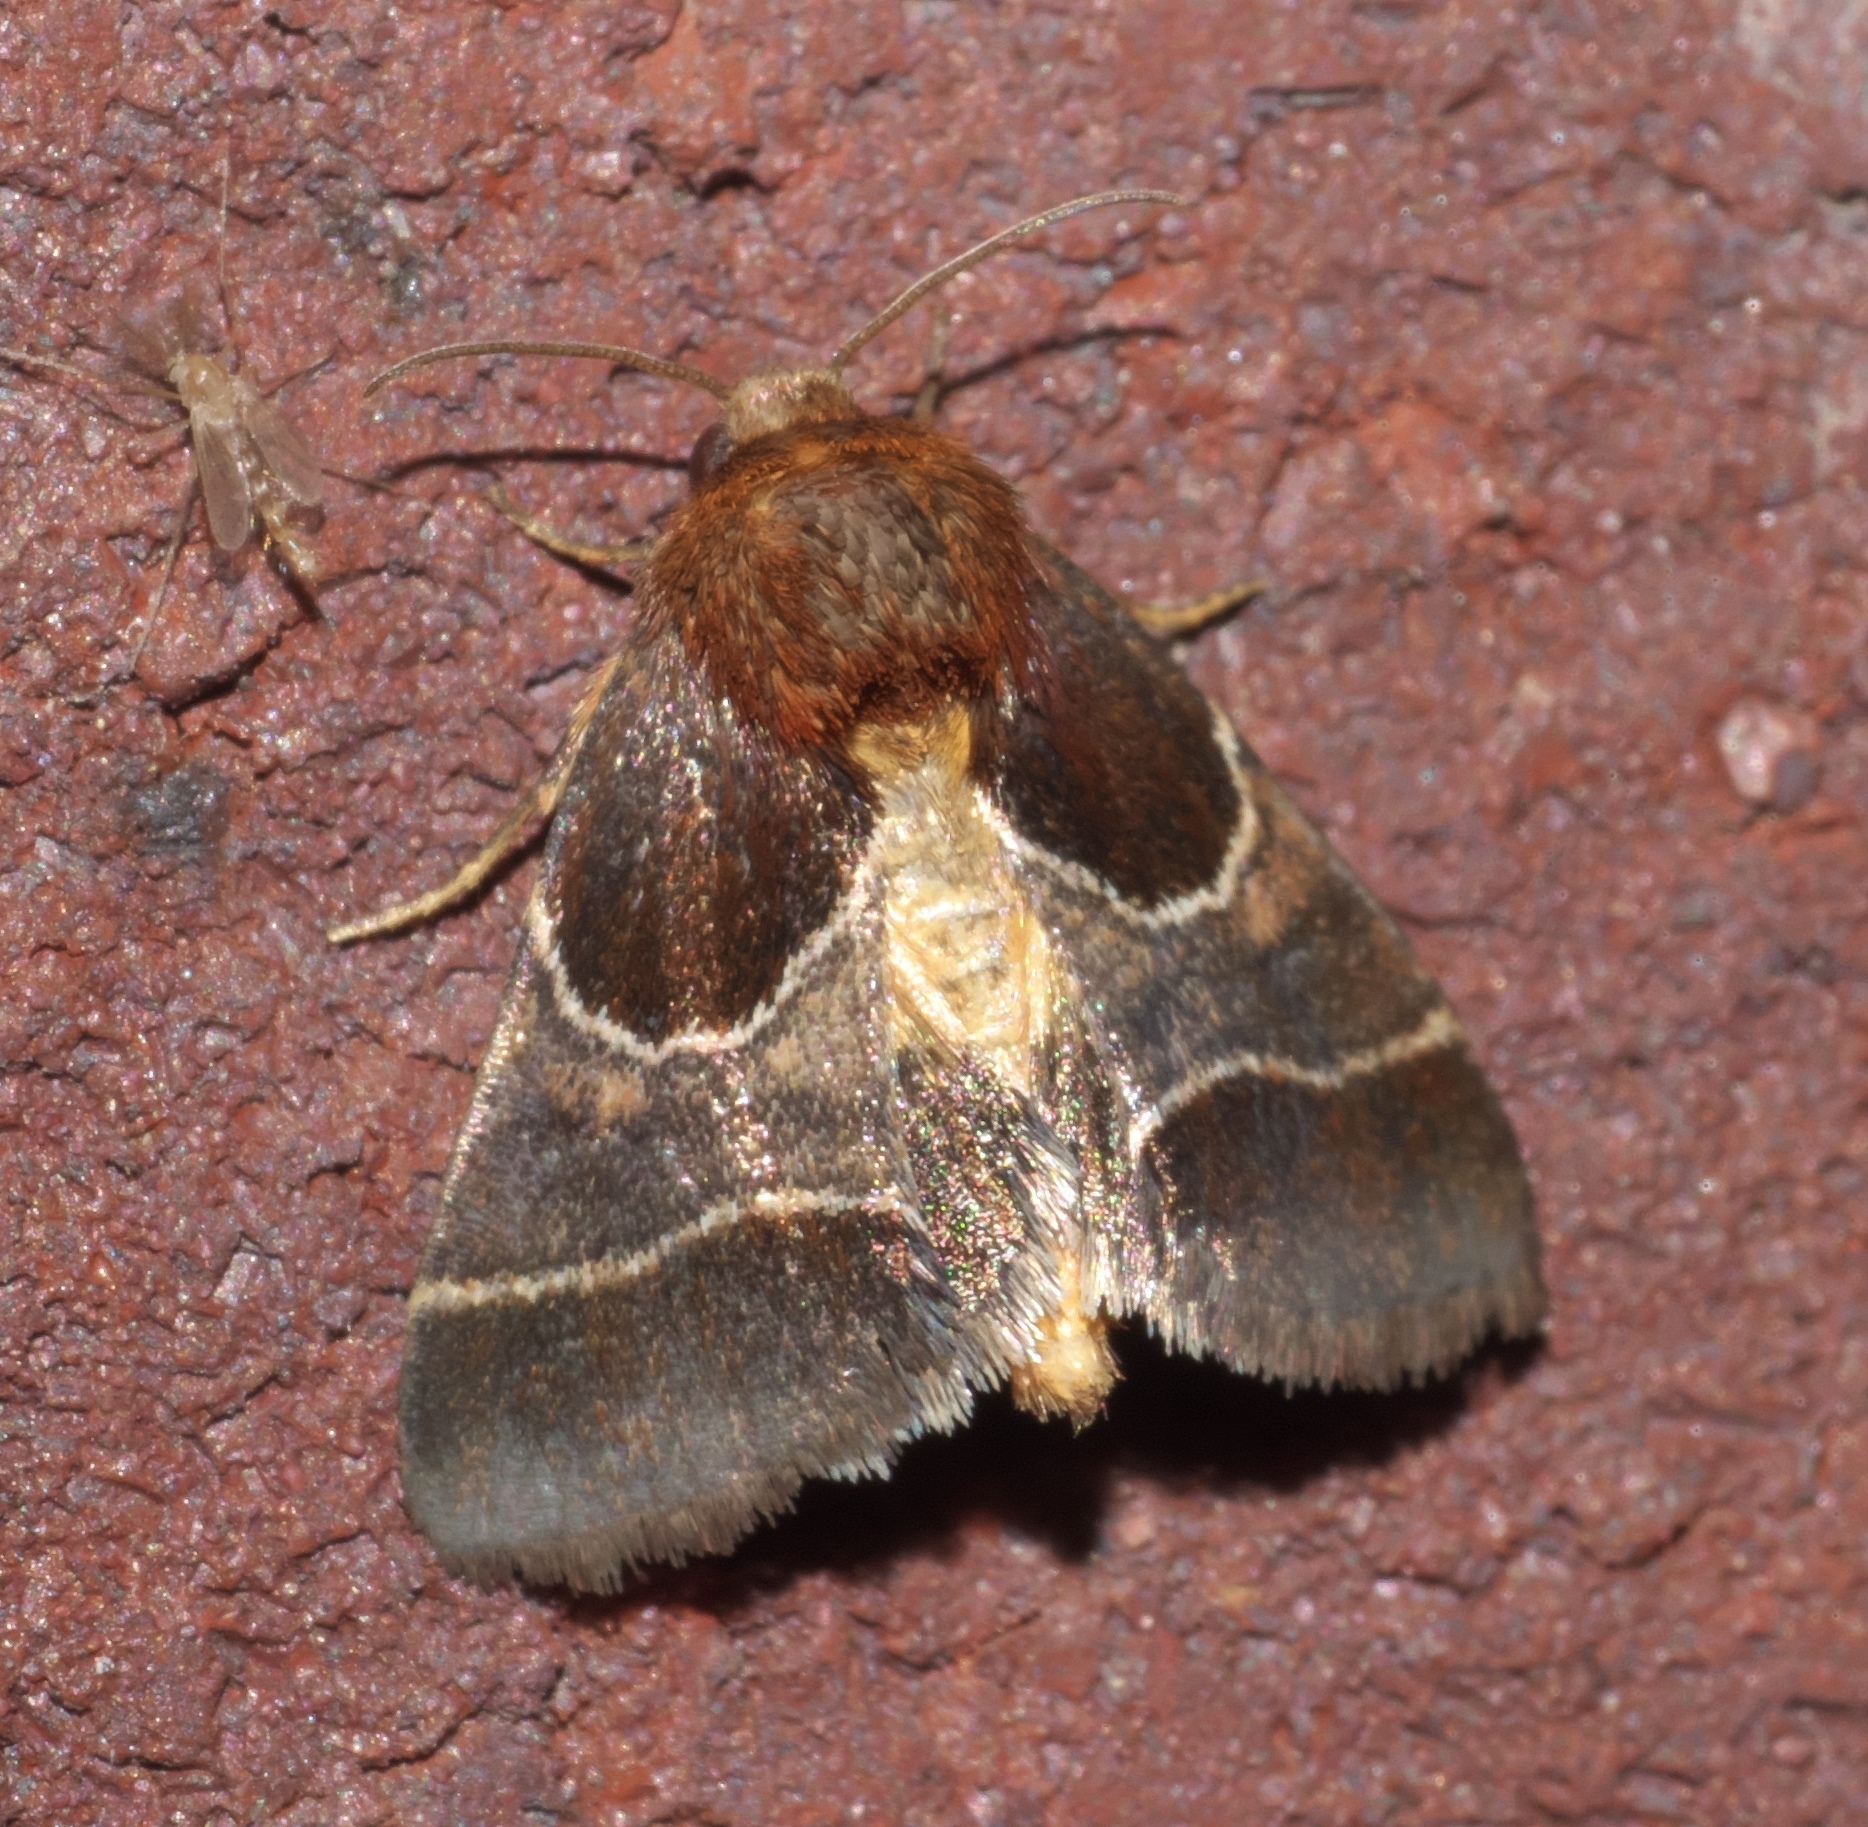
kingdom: Animalia
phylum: Arthropoda
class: Insecta
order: Lepidoptera
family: Noctuidae
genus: Schinia
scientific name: Schinia arcigera
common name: Arcigera flower moth
